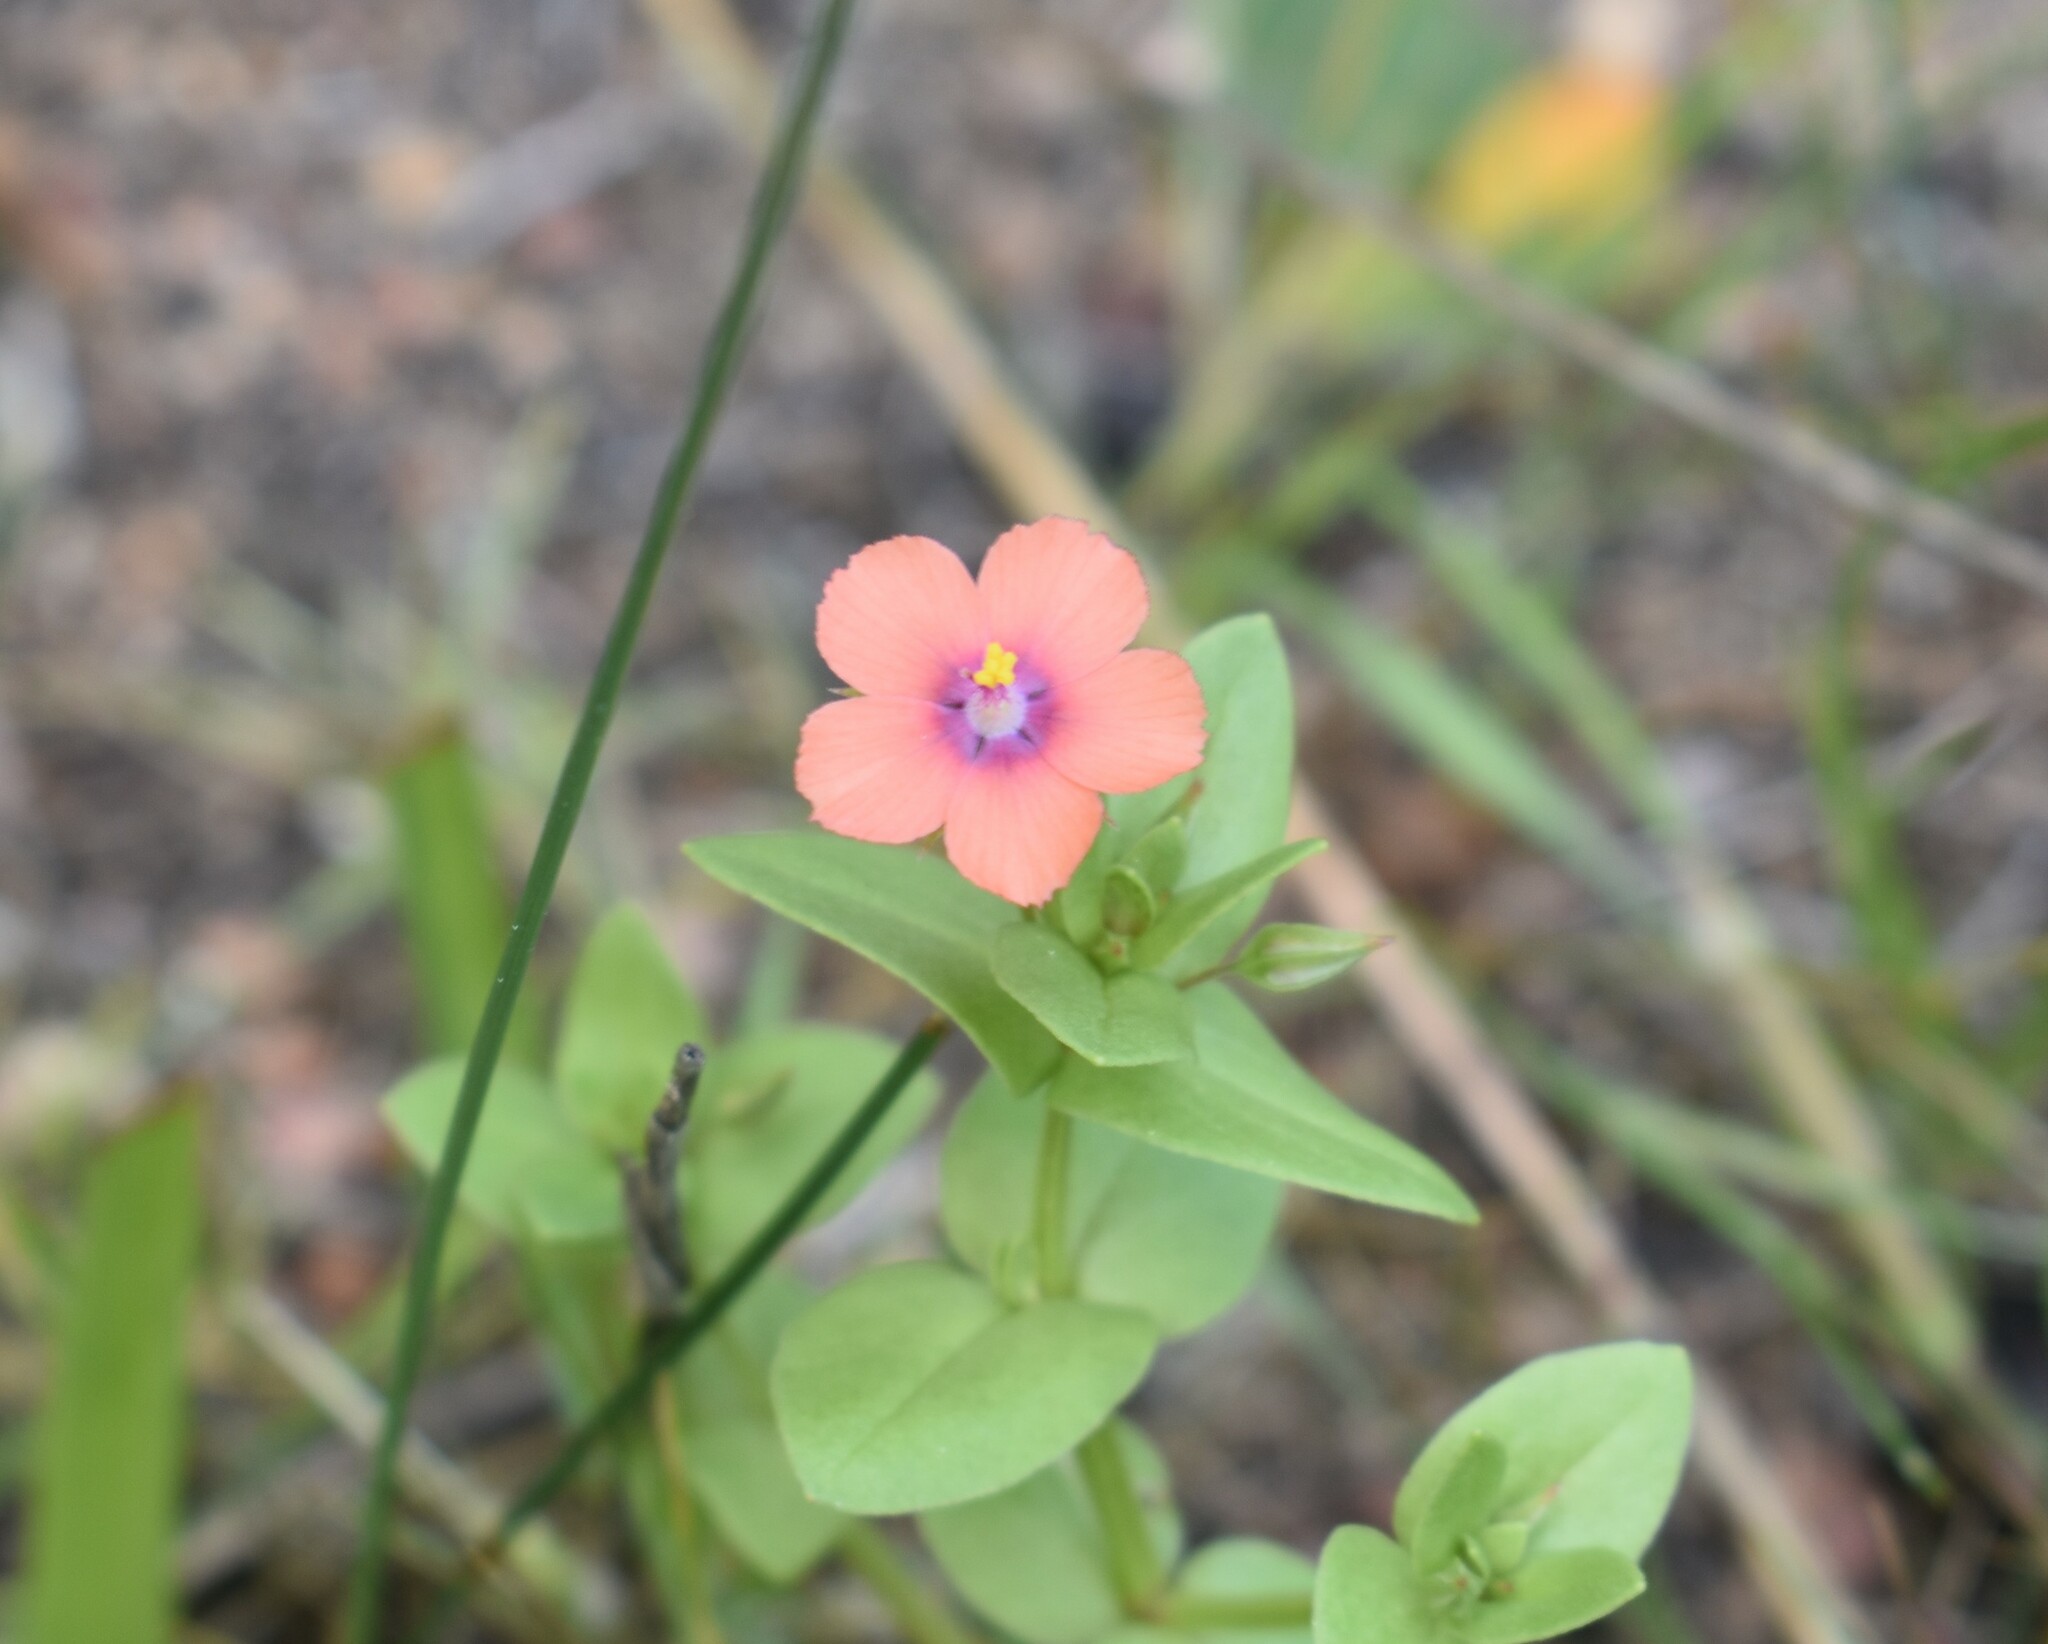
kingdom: Plantae
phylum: Tracheophyta
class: Magnoliopsida
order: Ericales
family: Primulaceae
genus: Lysimachia
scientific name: Lysimachia arvensis
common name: Scarlet pimpernel
